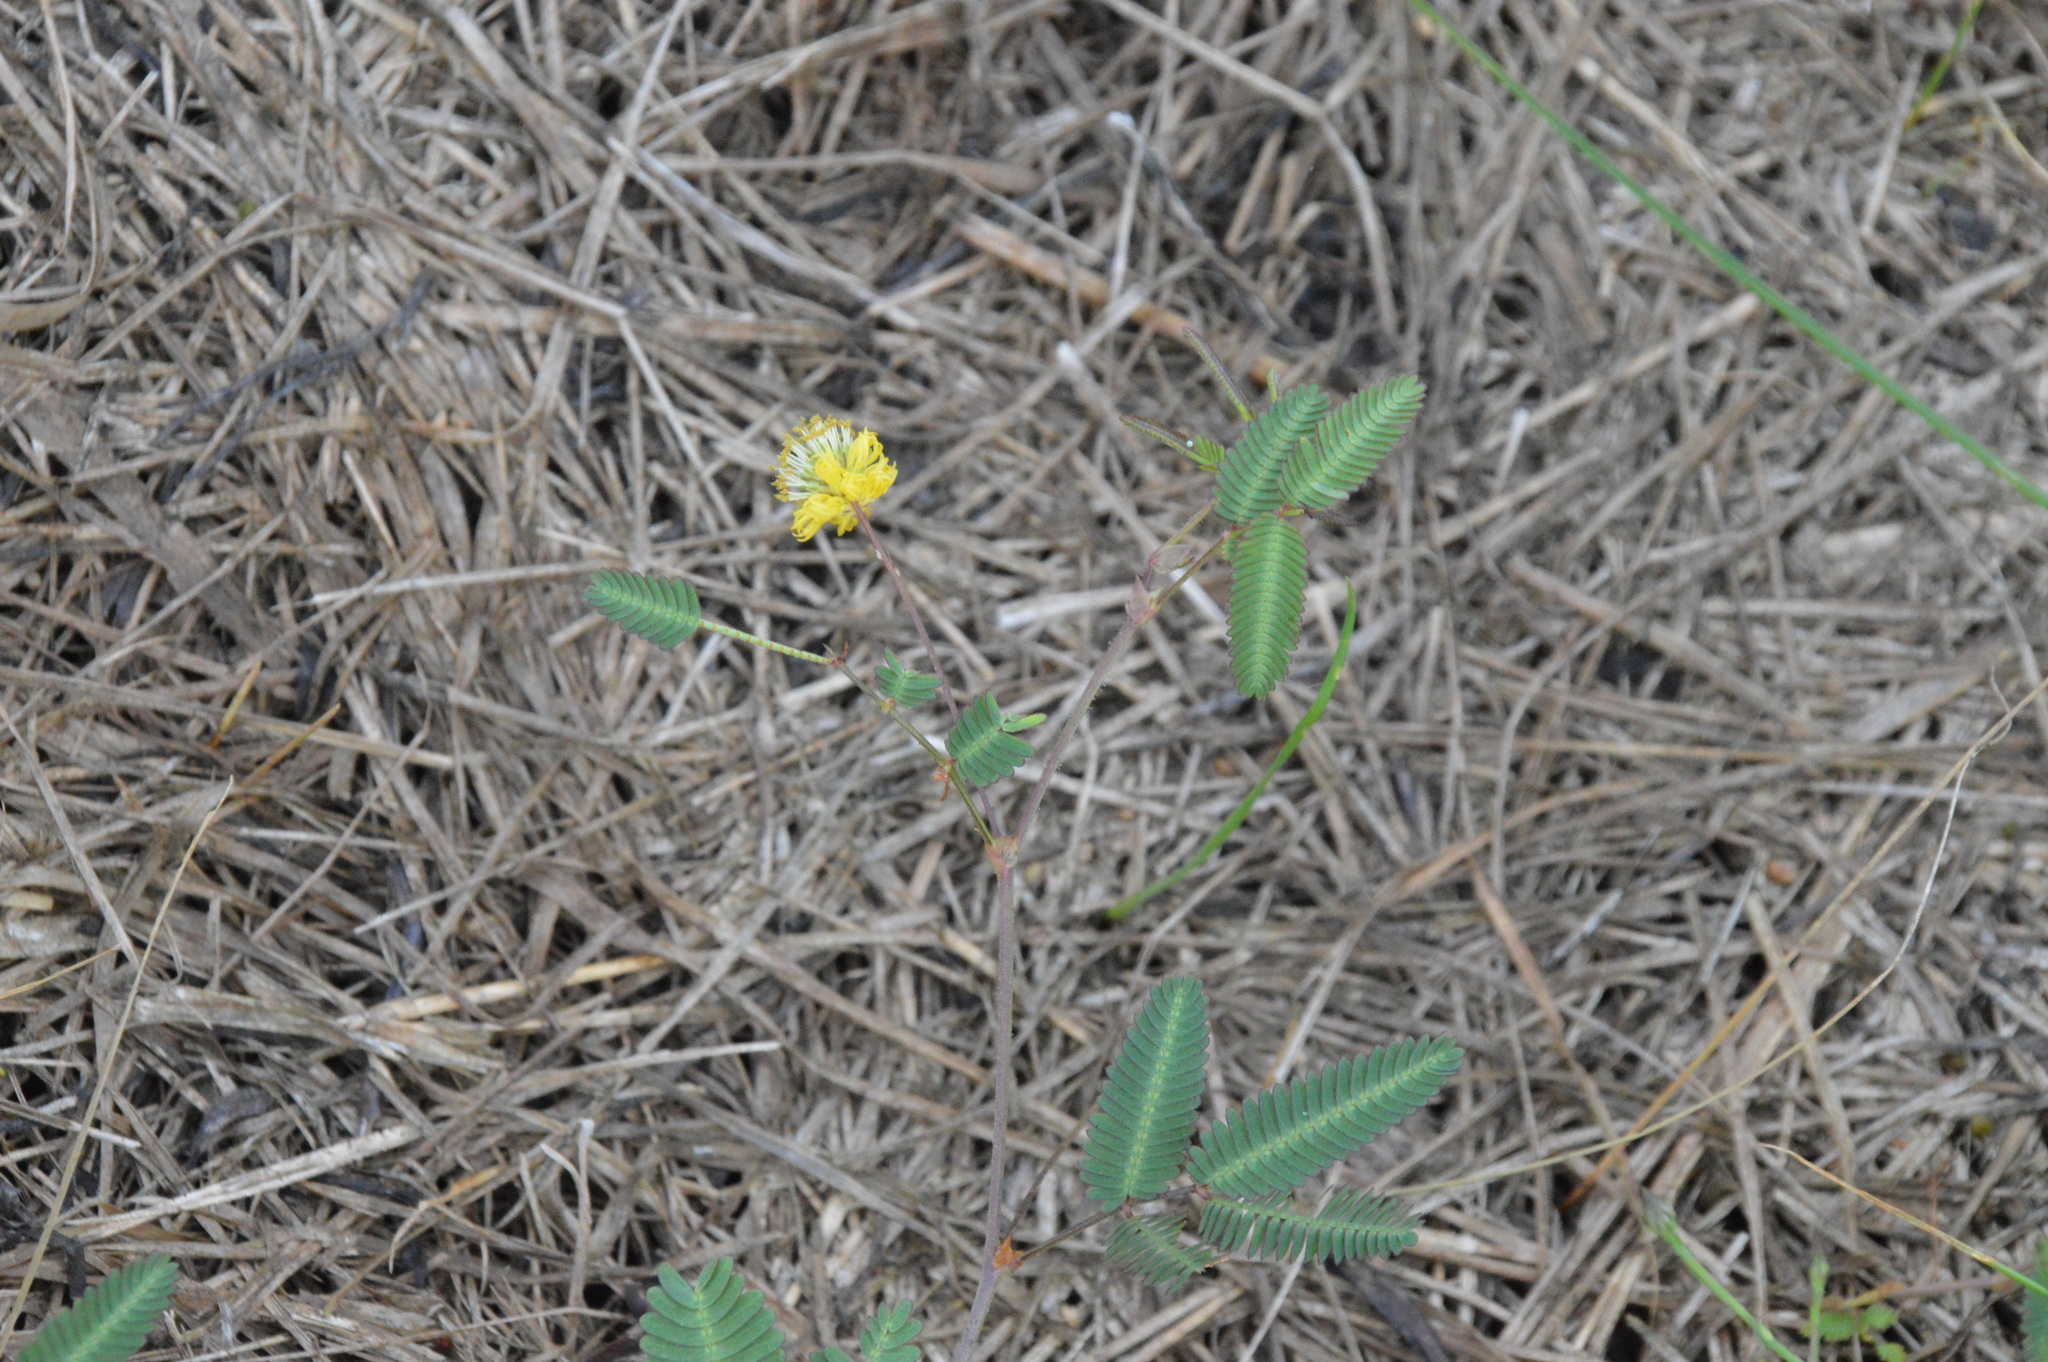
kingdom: Plantae
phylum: Tracheophyta
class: Magnoliopsida
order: Fabales
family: Fabaceae
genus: Neptunia
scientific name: Neptunia pubescens
